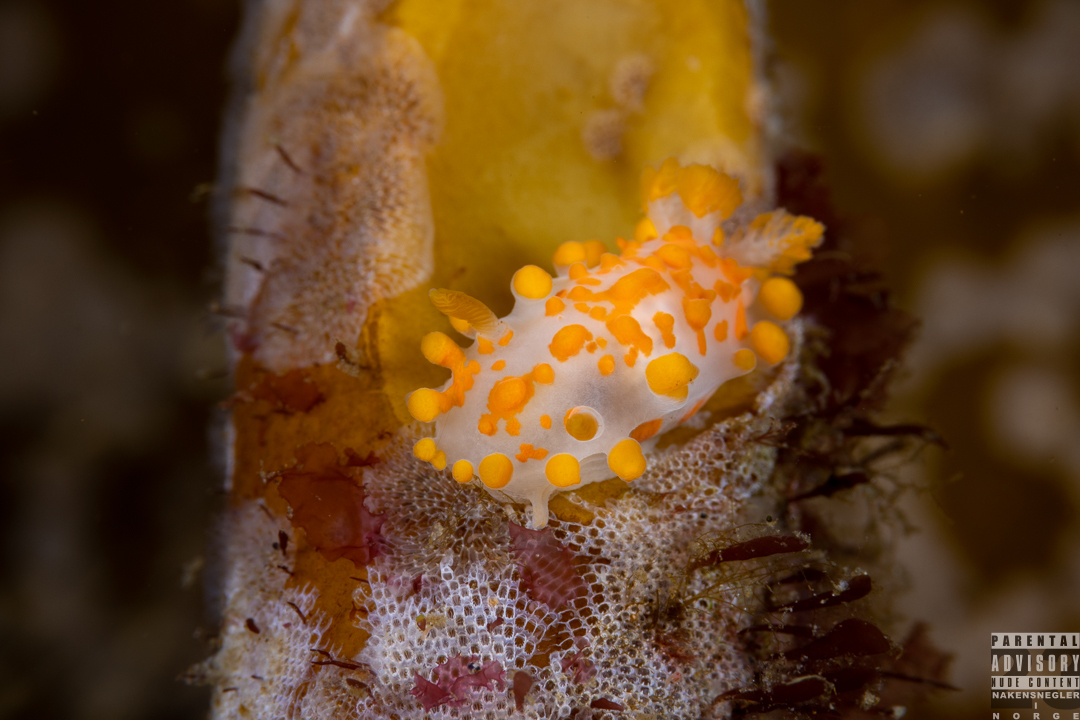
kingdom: Animalia
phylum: Mollusca
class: Gastropoda
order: Nudibranchia
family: Polyceridae
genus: Limacia
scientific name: Limacia clavigera
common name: Orange-clubbed sea slug
